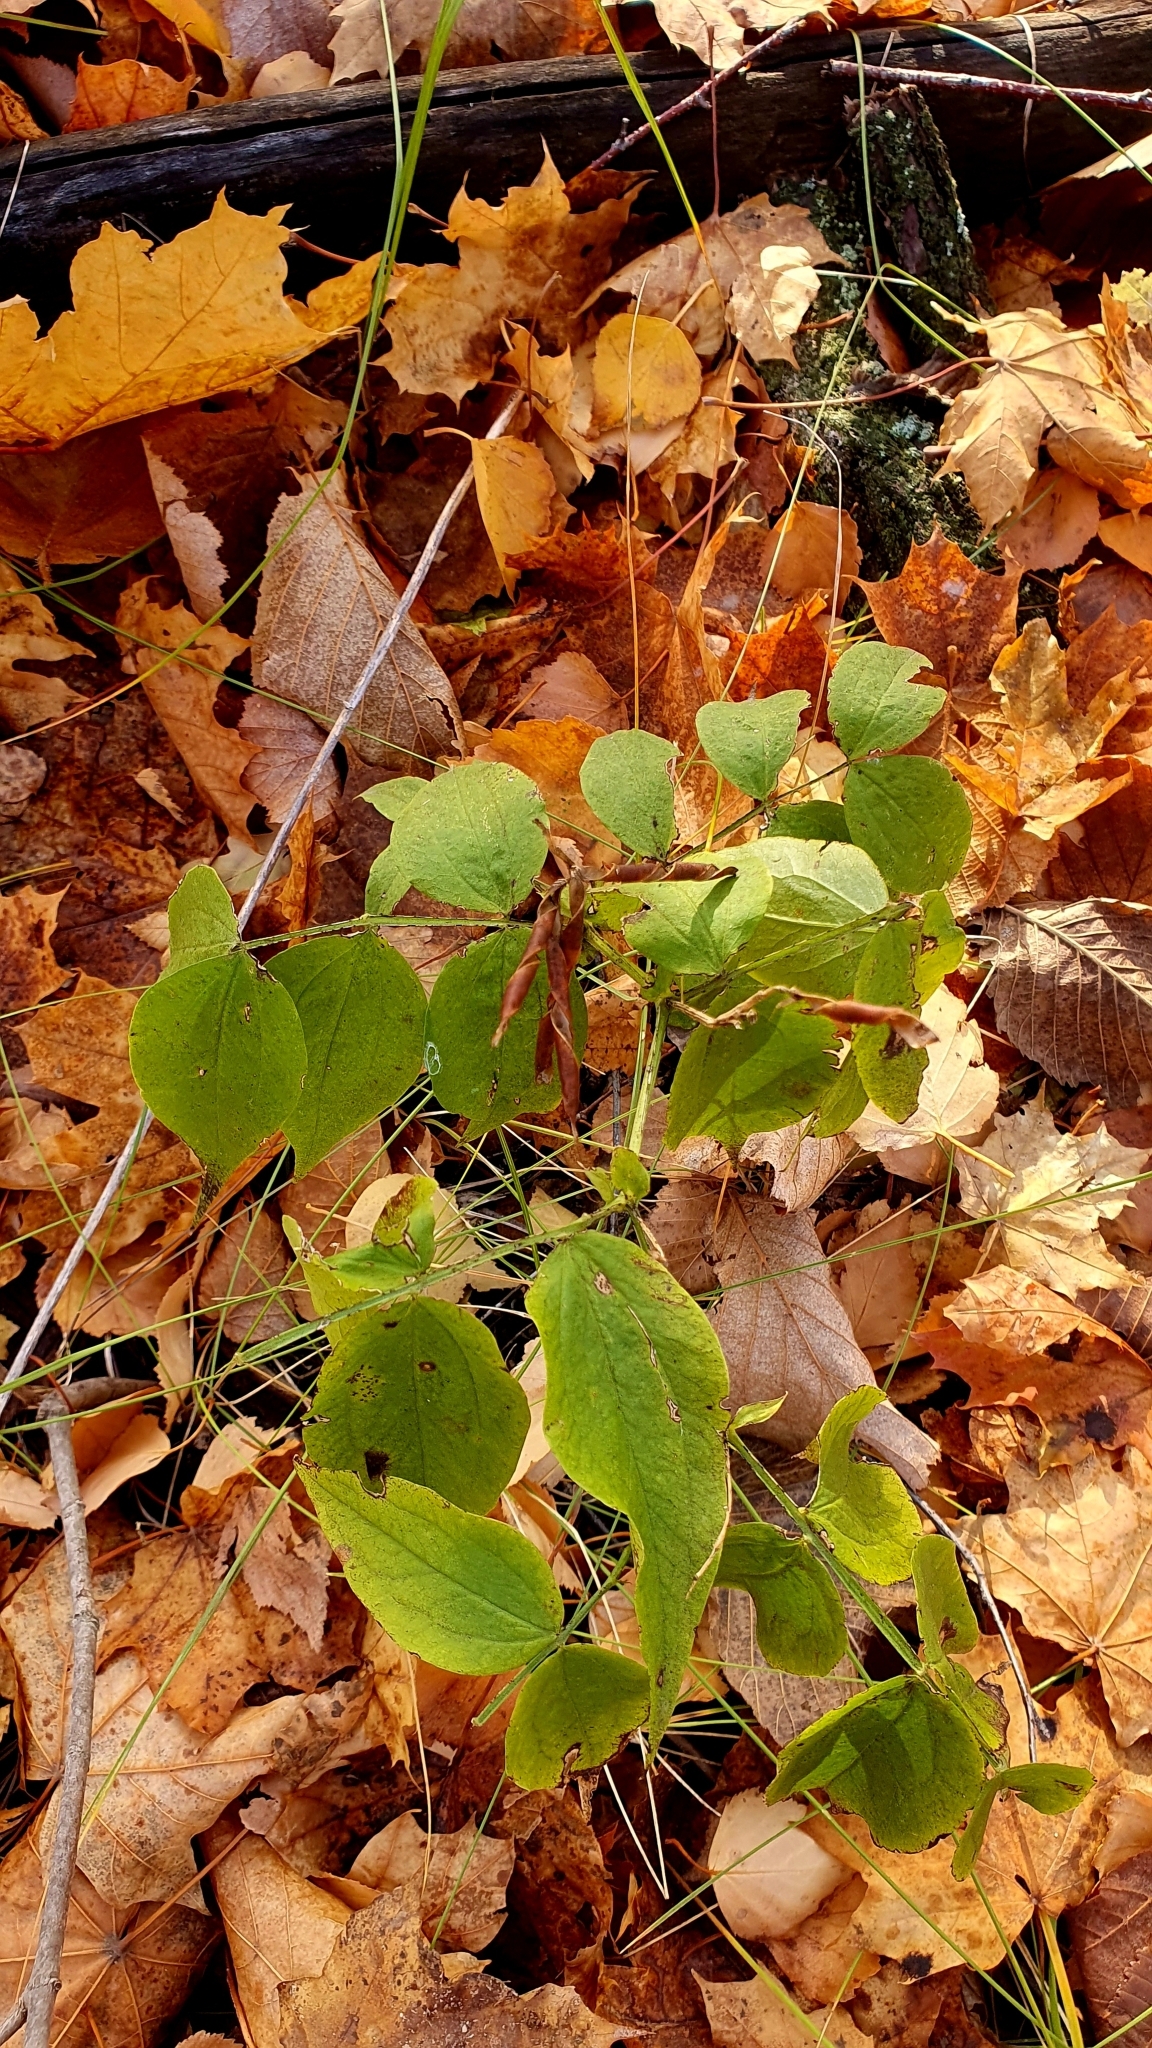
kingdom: Plantae
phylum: Tracheophyta
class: Magnoliopsida
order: Fabales
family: Fabaceae
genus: Lathyrus
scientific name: Lathyrus vernus
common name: Spring pea
